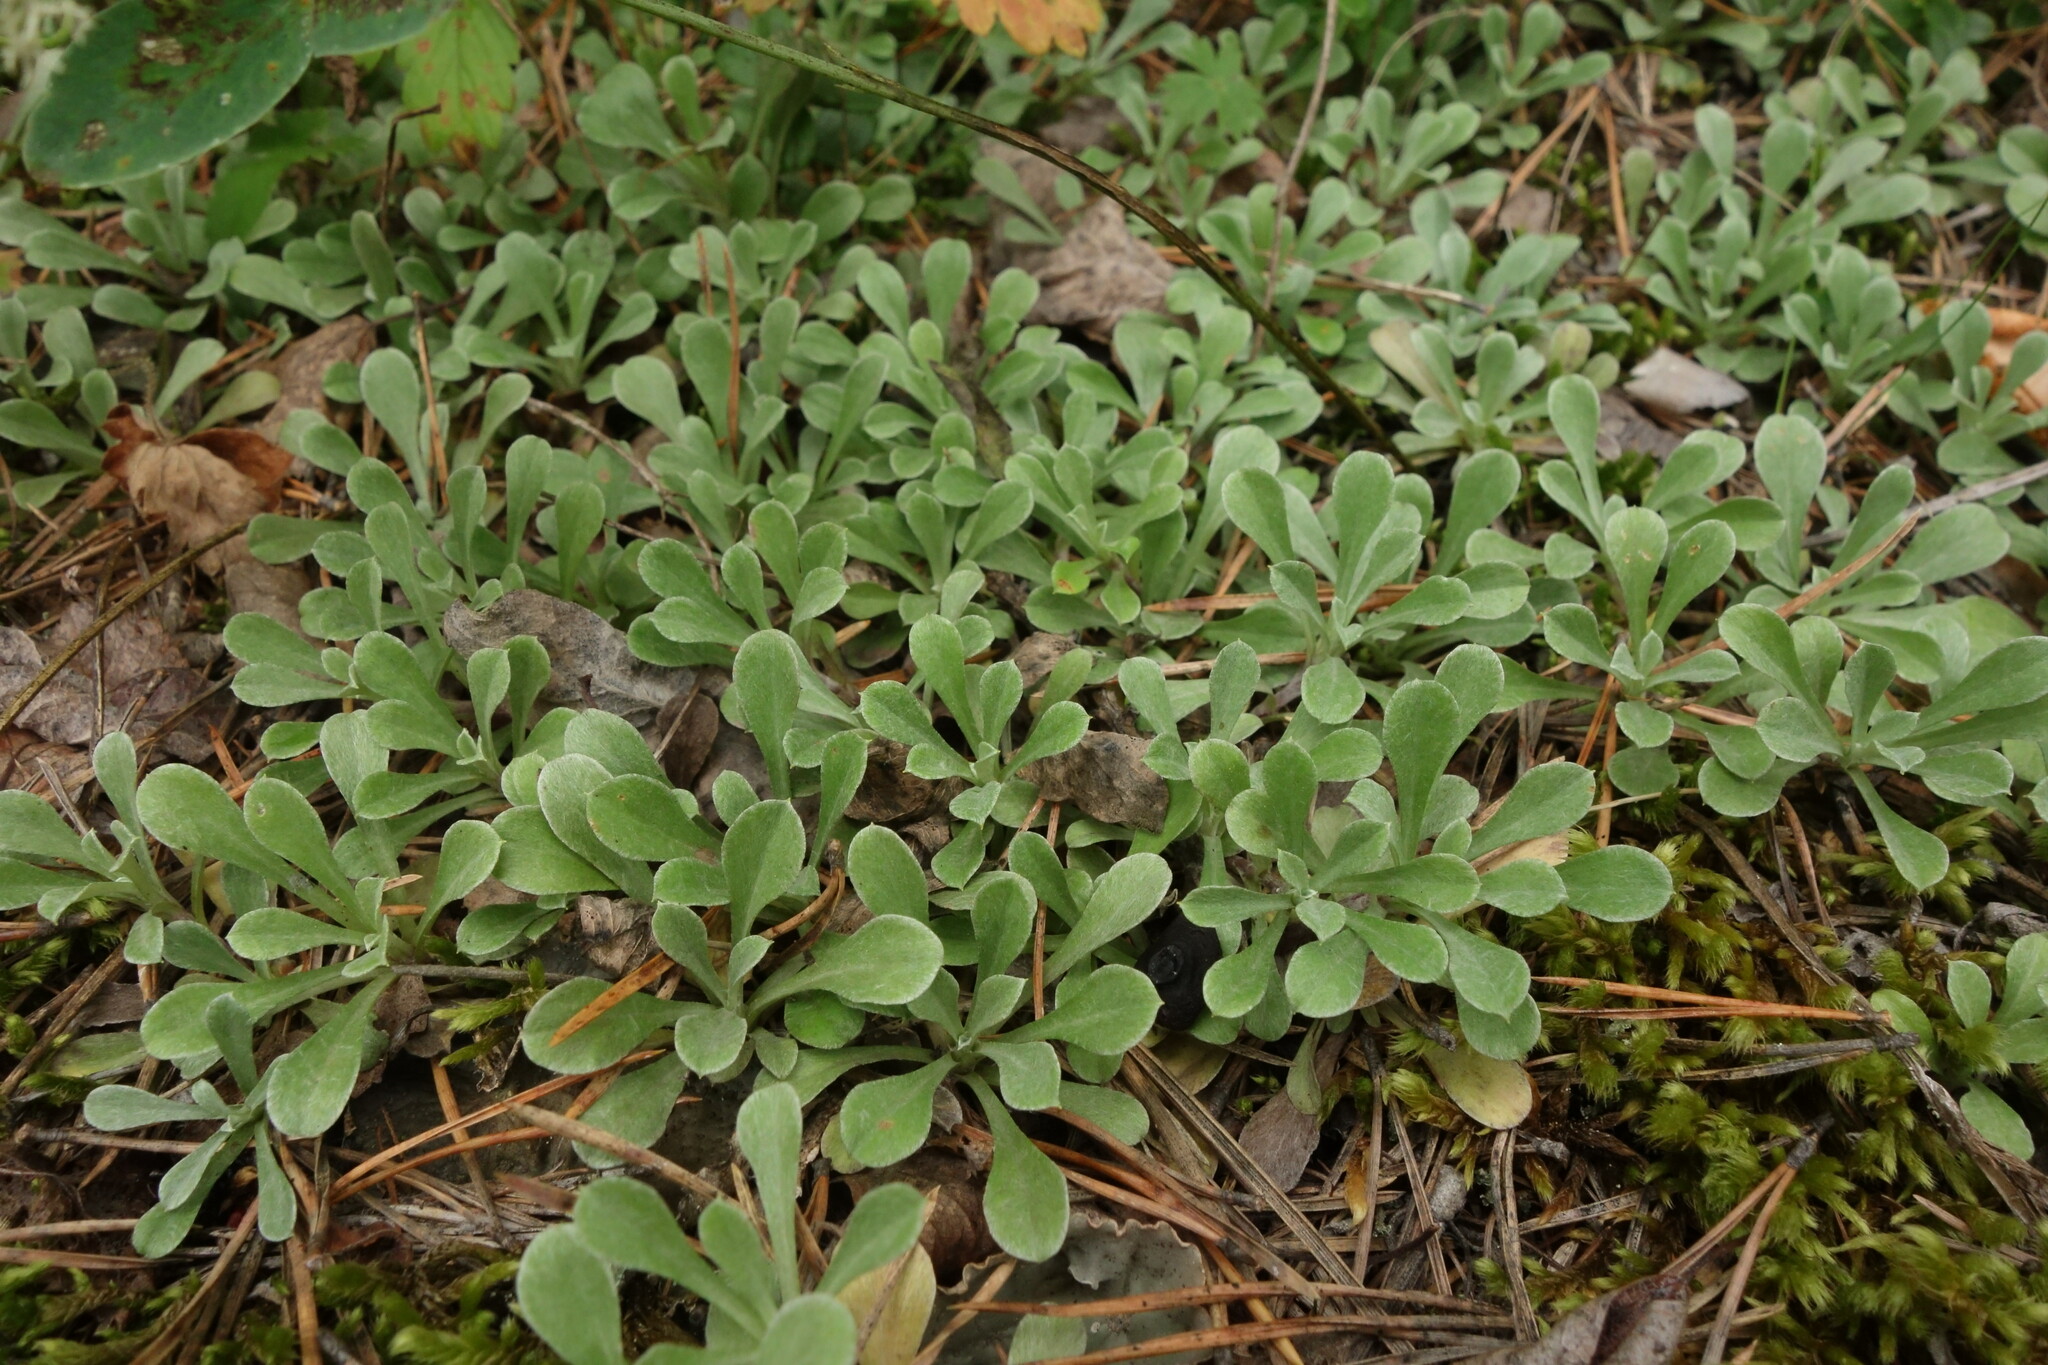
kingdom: Plantae
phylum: Tracheophyta
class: Magnoliopsida
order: Asterales
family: Asteraceae
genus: Antennaria
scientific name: Antennaria dioica
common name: Mountain everlasting
